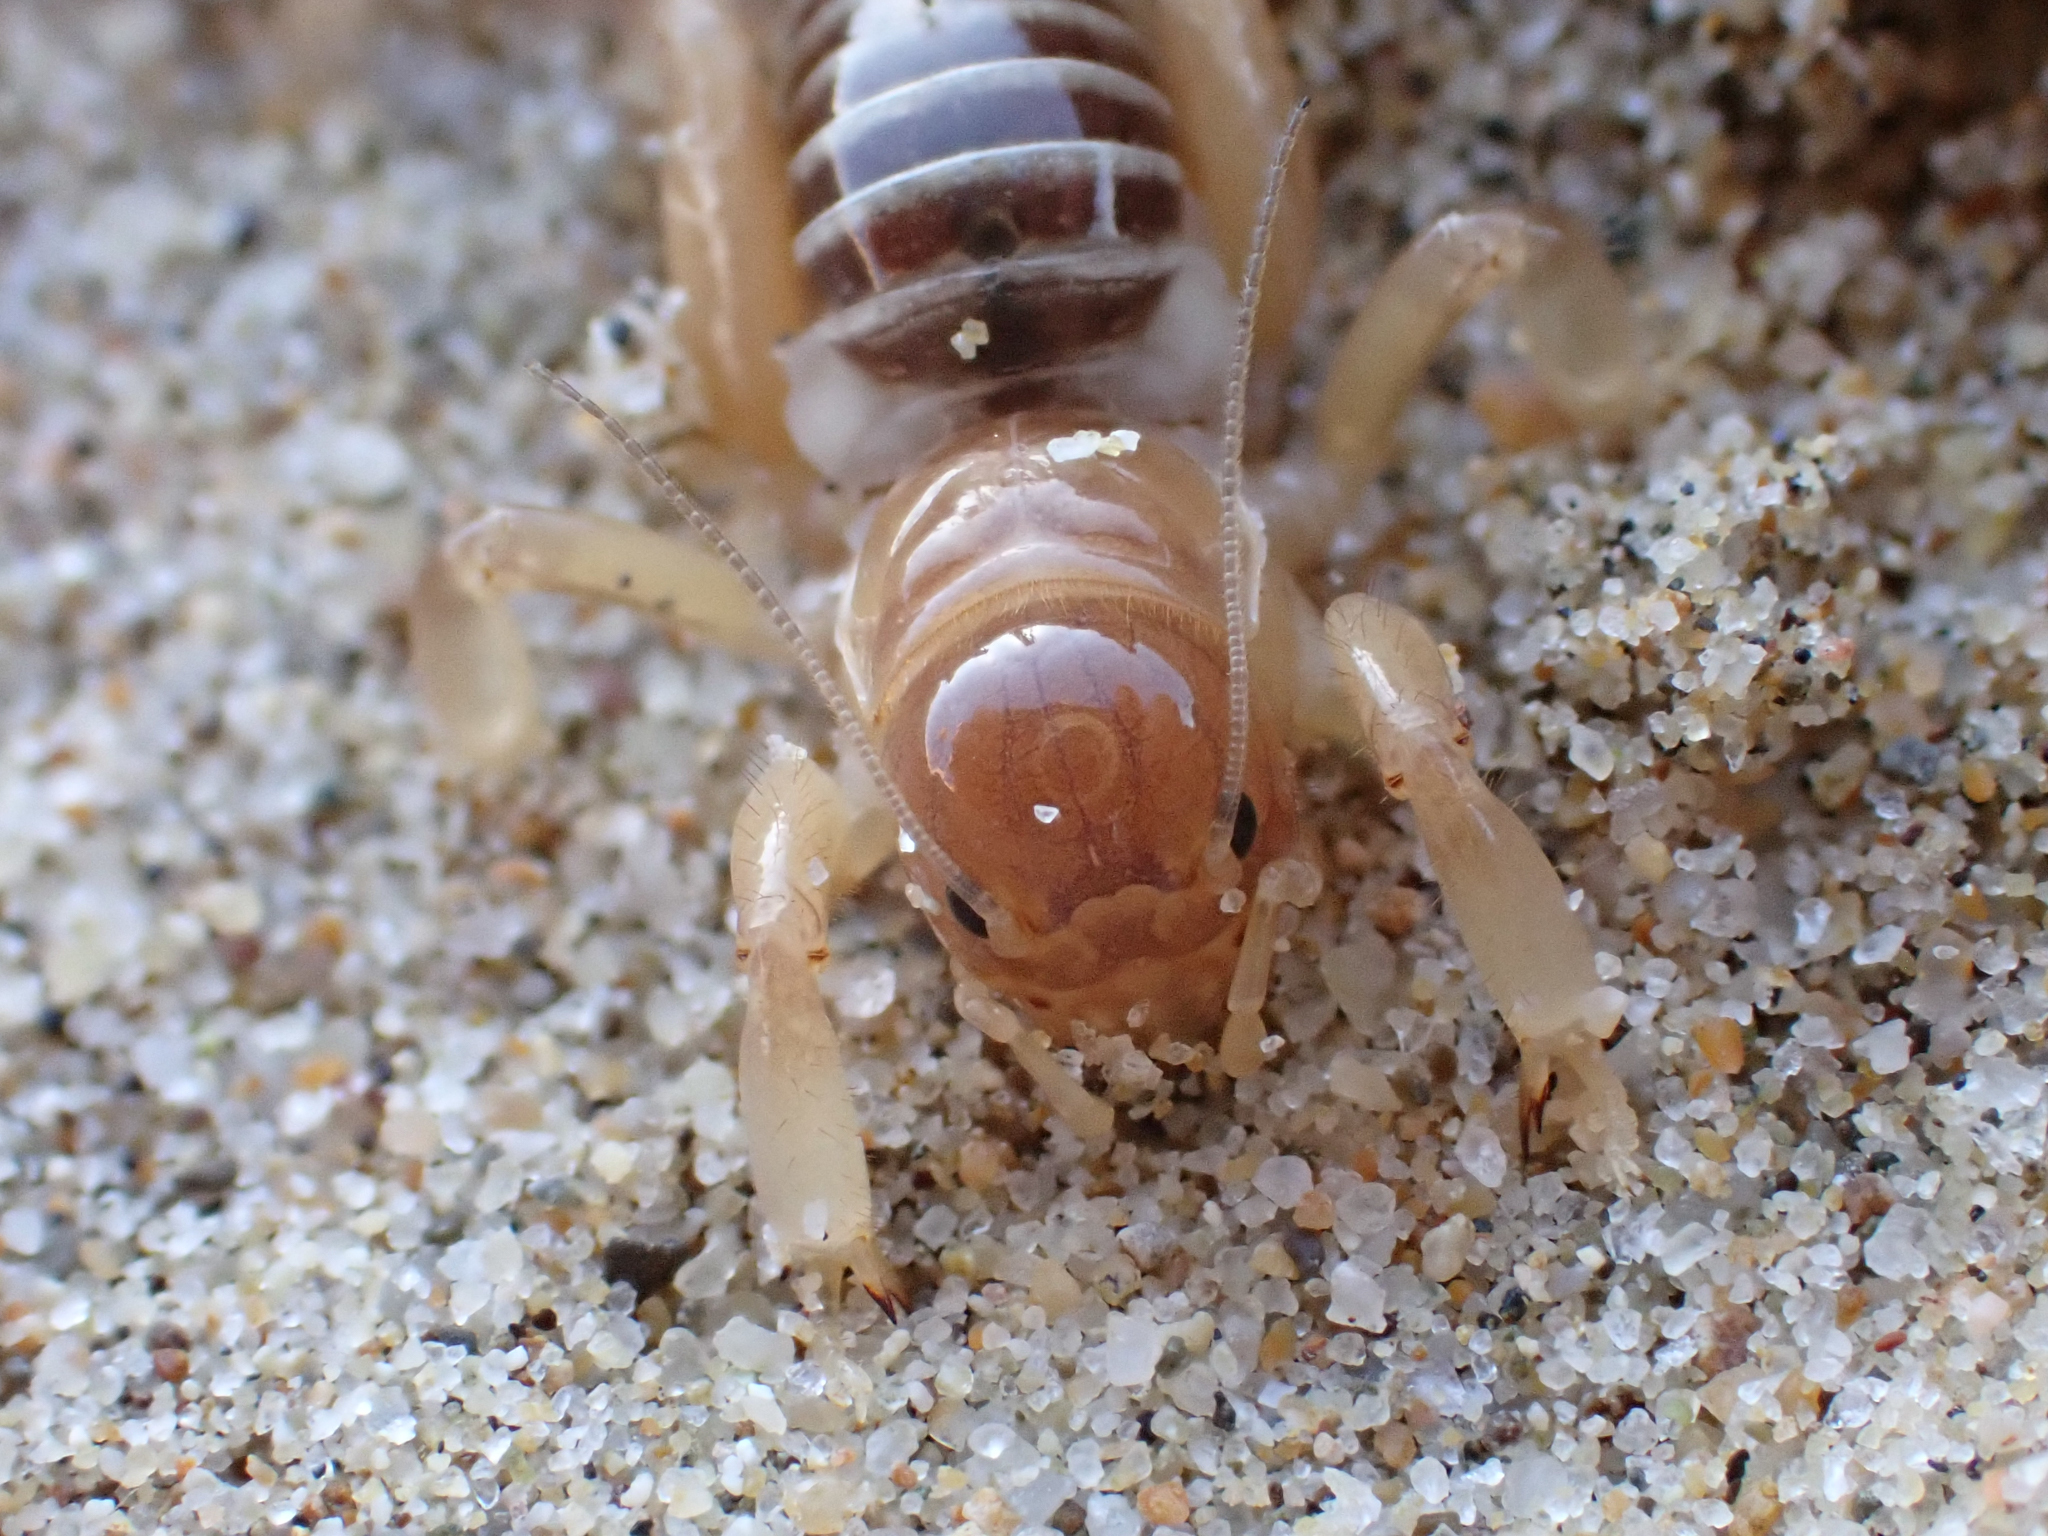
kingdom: Animalia
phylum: Arthropoda
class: Insecta
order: Orthoptera
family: Stenopelmatidae
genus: Ammopelmatus
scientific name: Ammopelmatus muwu
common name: Port conception jerusalem cricket
